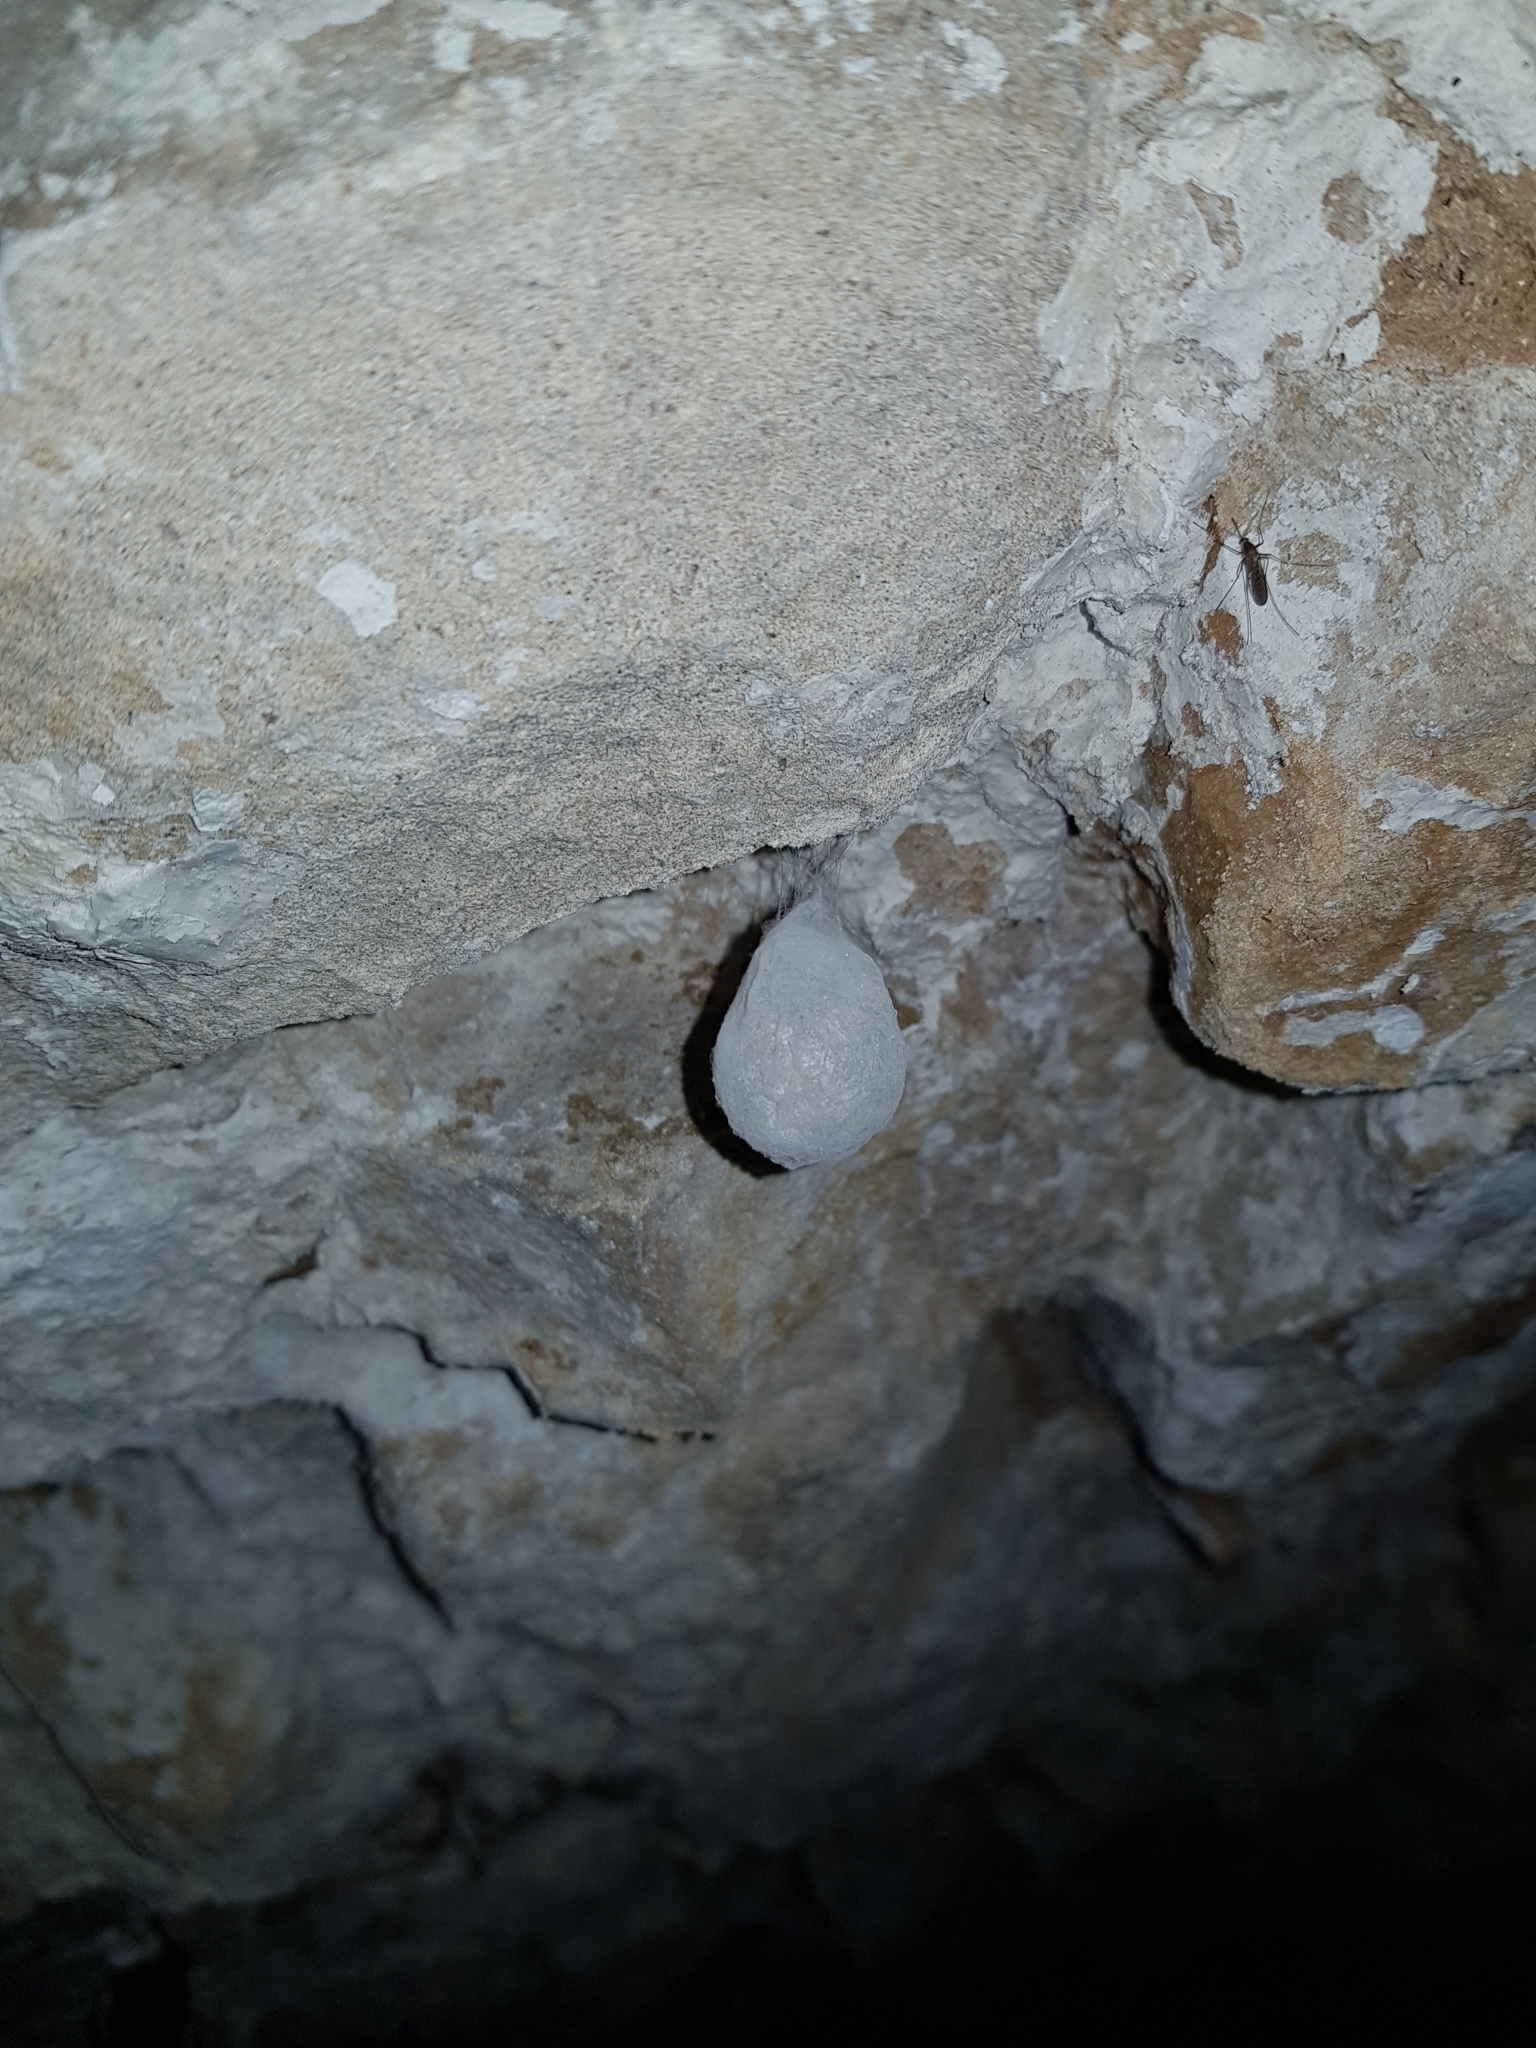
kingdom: Animalia
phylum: Arthropoda
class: Arachnida
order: Araneae
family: Tetragnathidae
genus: Meta
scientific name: Meta menardi
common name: Cave spider
